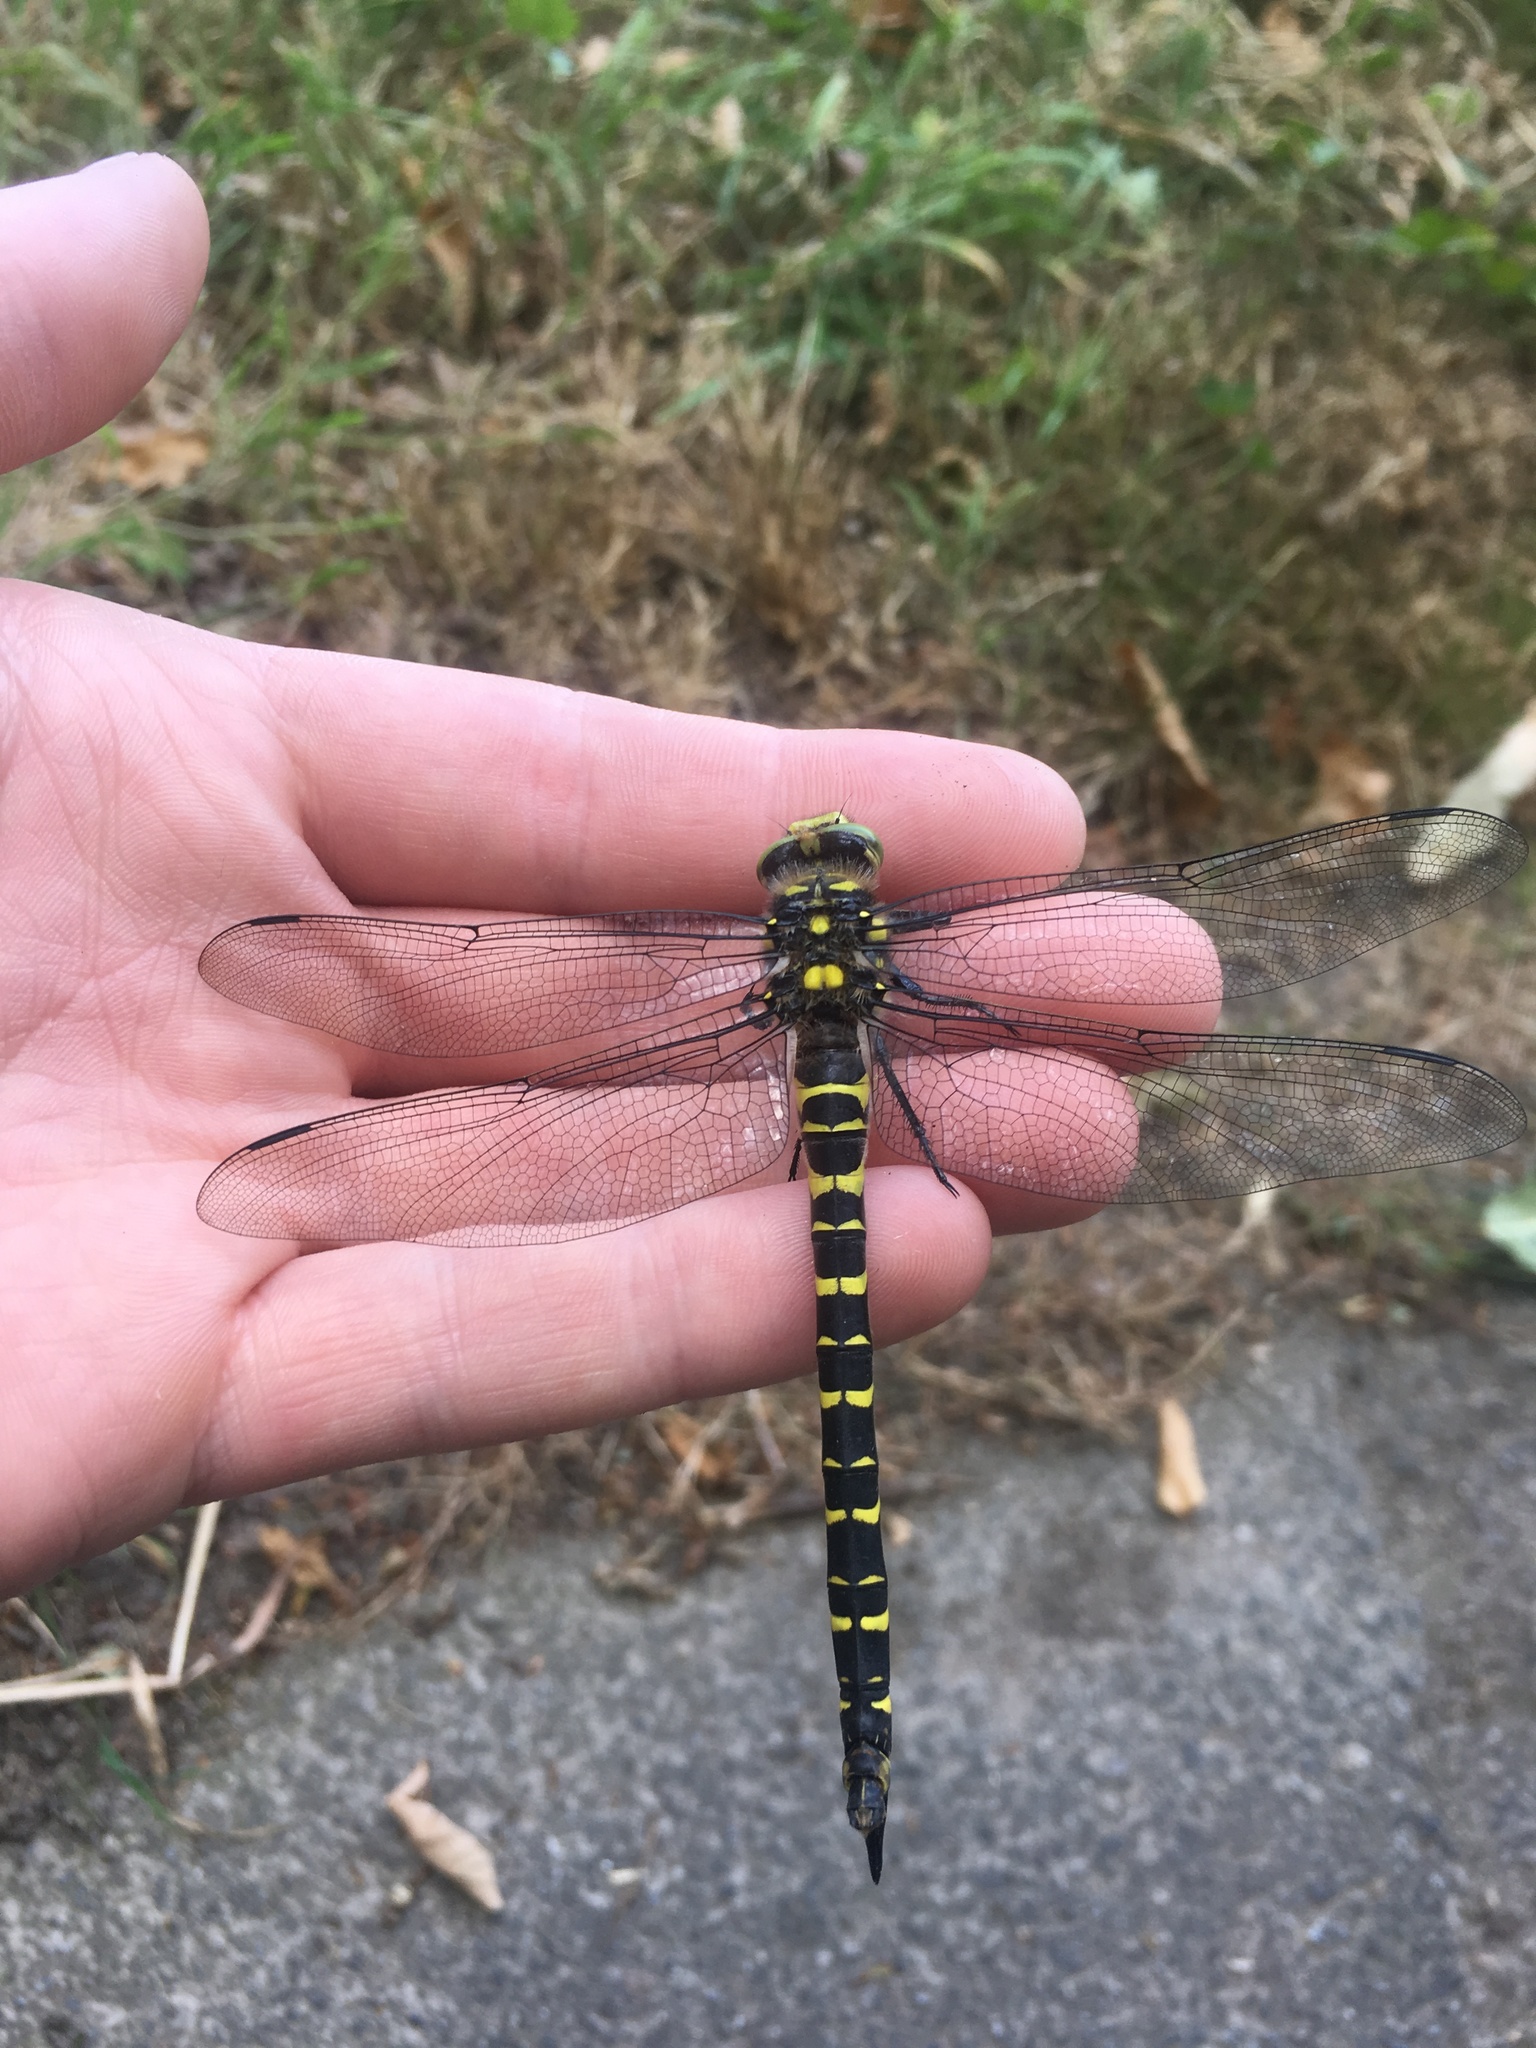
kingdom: Animalia
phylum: Arthropoda
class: Insecta
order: Odonata
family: Cordulegastridae
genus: Cordulegaster
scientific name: Cordulegaster boltonii
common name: Golden-ringed dragonfly
